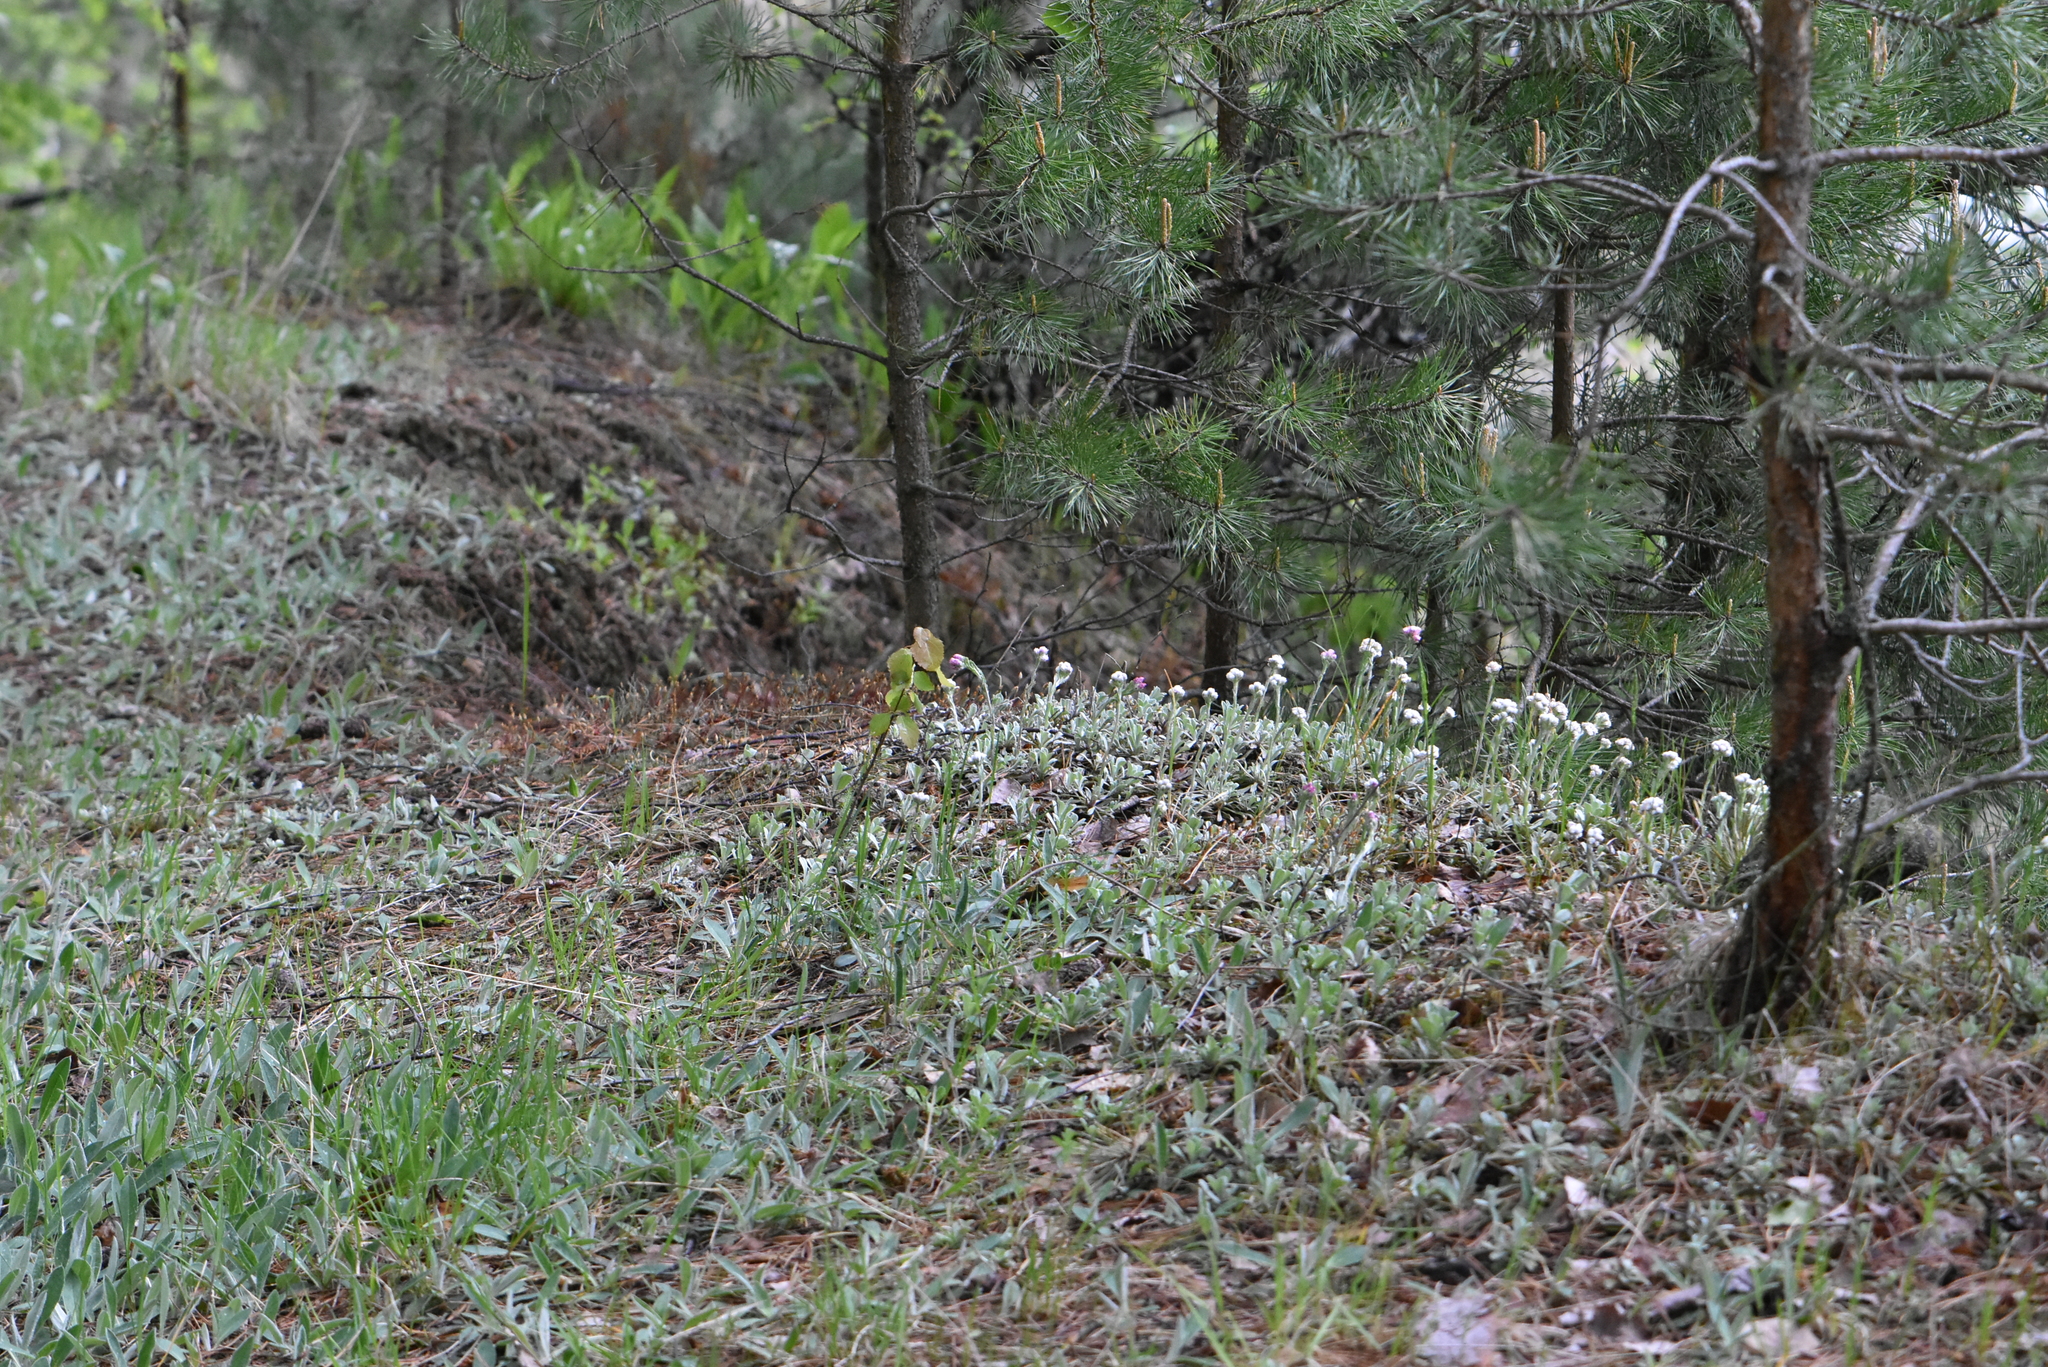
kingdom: Plantae
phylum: Tracheophyta
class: Magnoliopsida
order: Asterales
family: Asteraceae
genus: Antennaria
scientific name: Antennaria dioica
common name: Mountain everlasting
